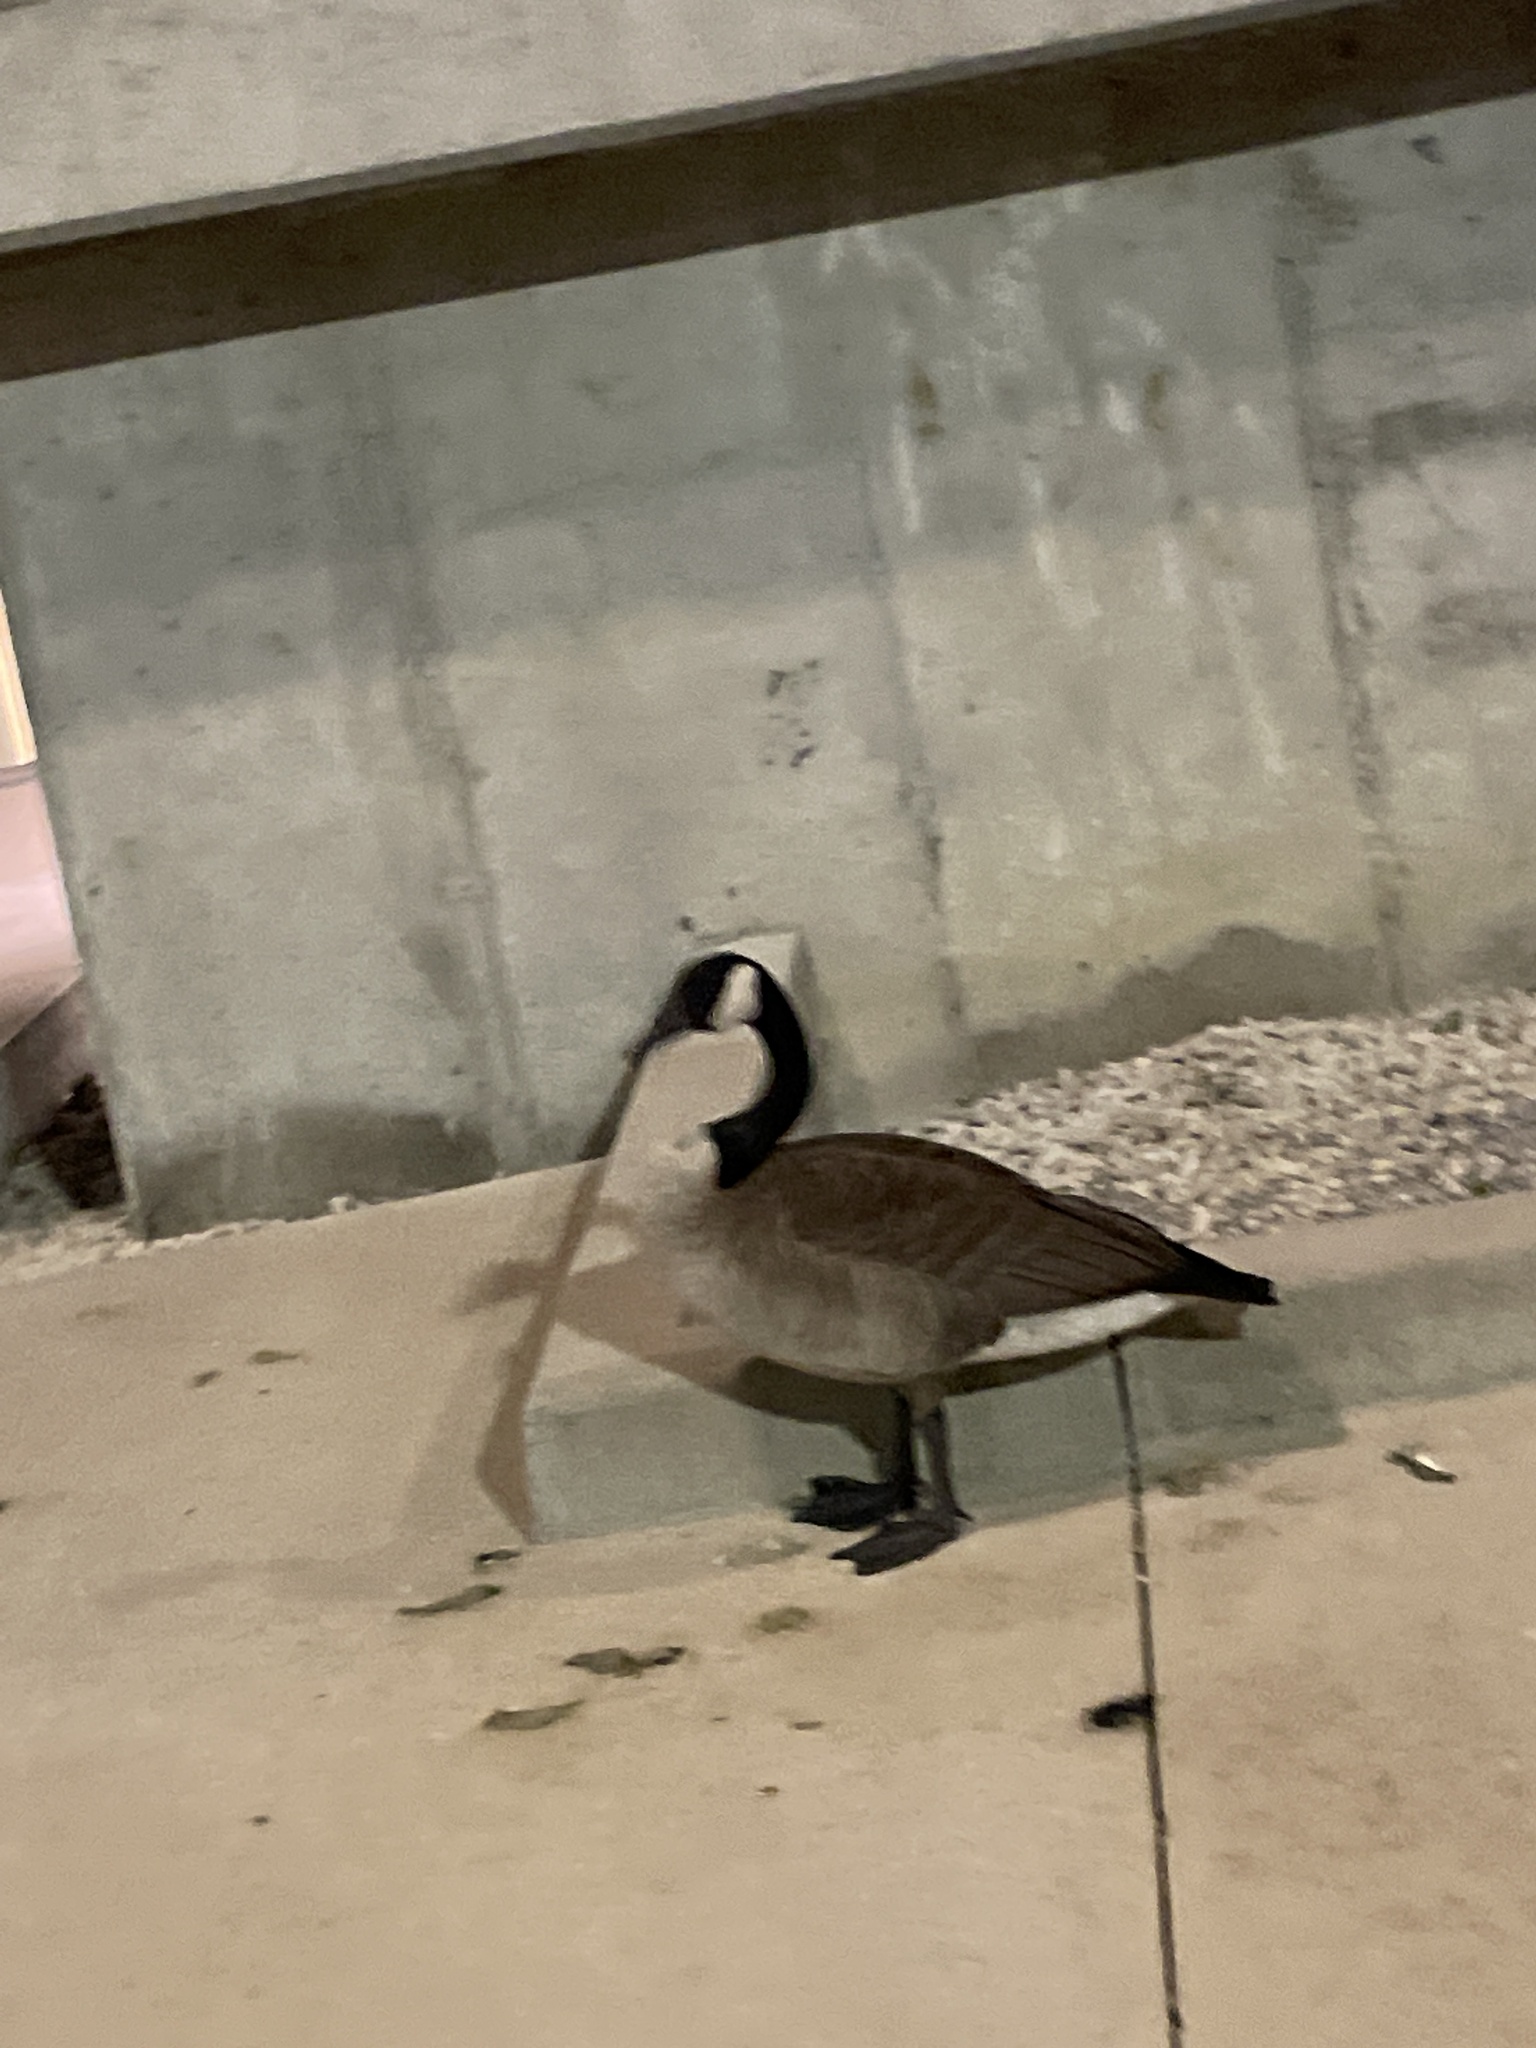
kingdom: Animalia
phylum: Chordata
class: Aves
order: Anseriformes
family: Anatidae
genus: Branta
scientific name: Branta canadensis
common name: Canada goose
